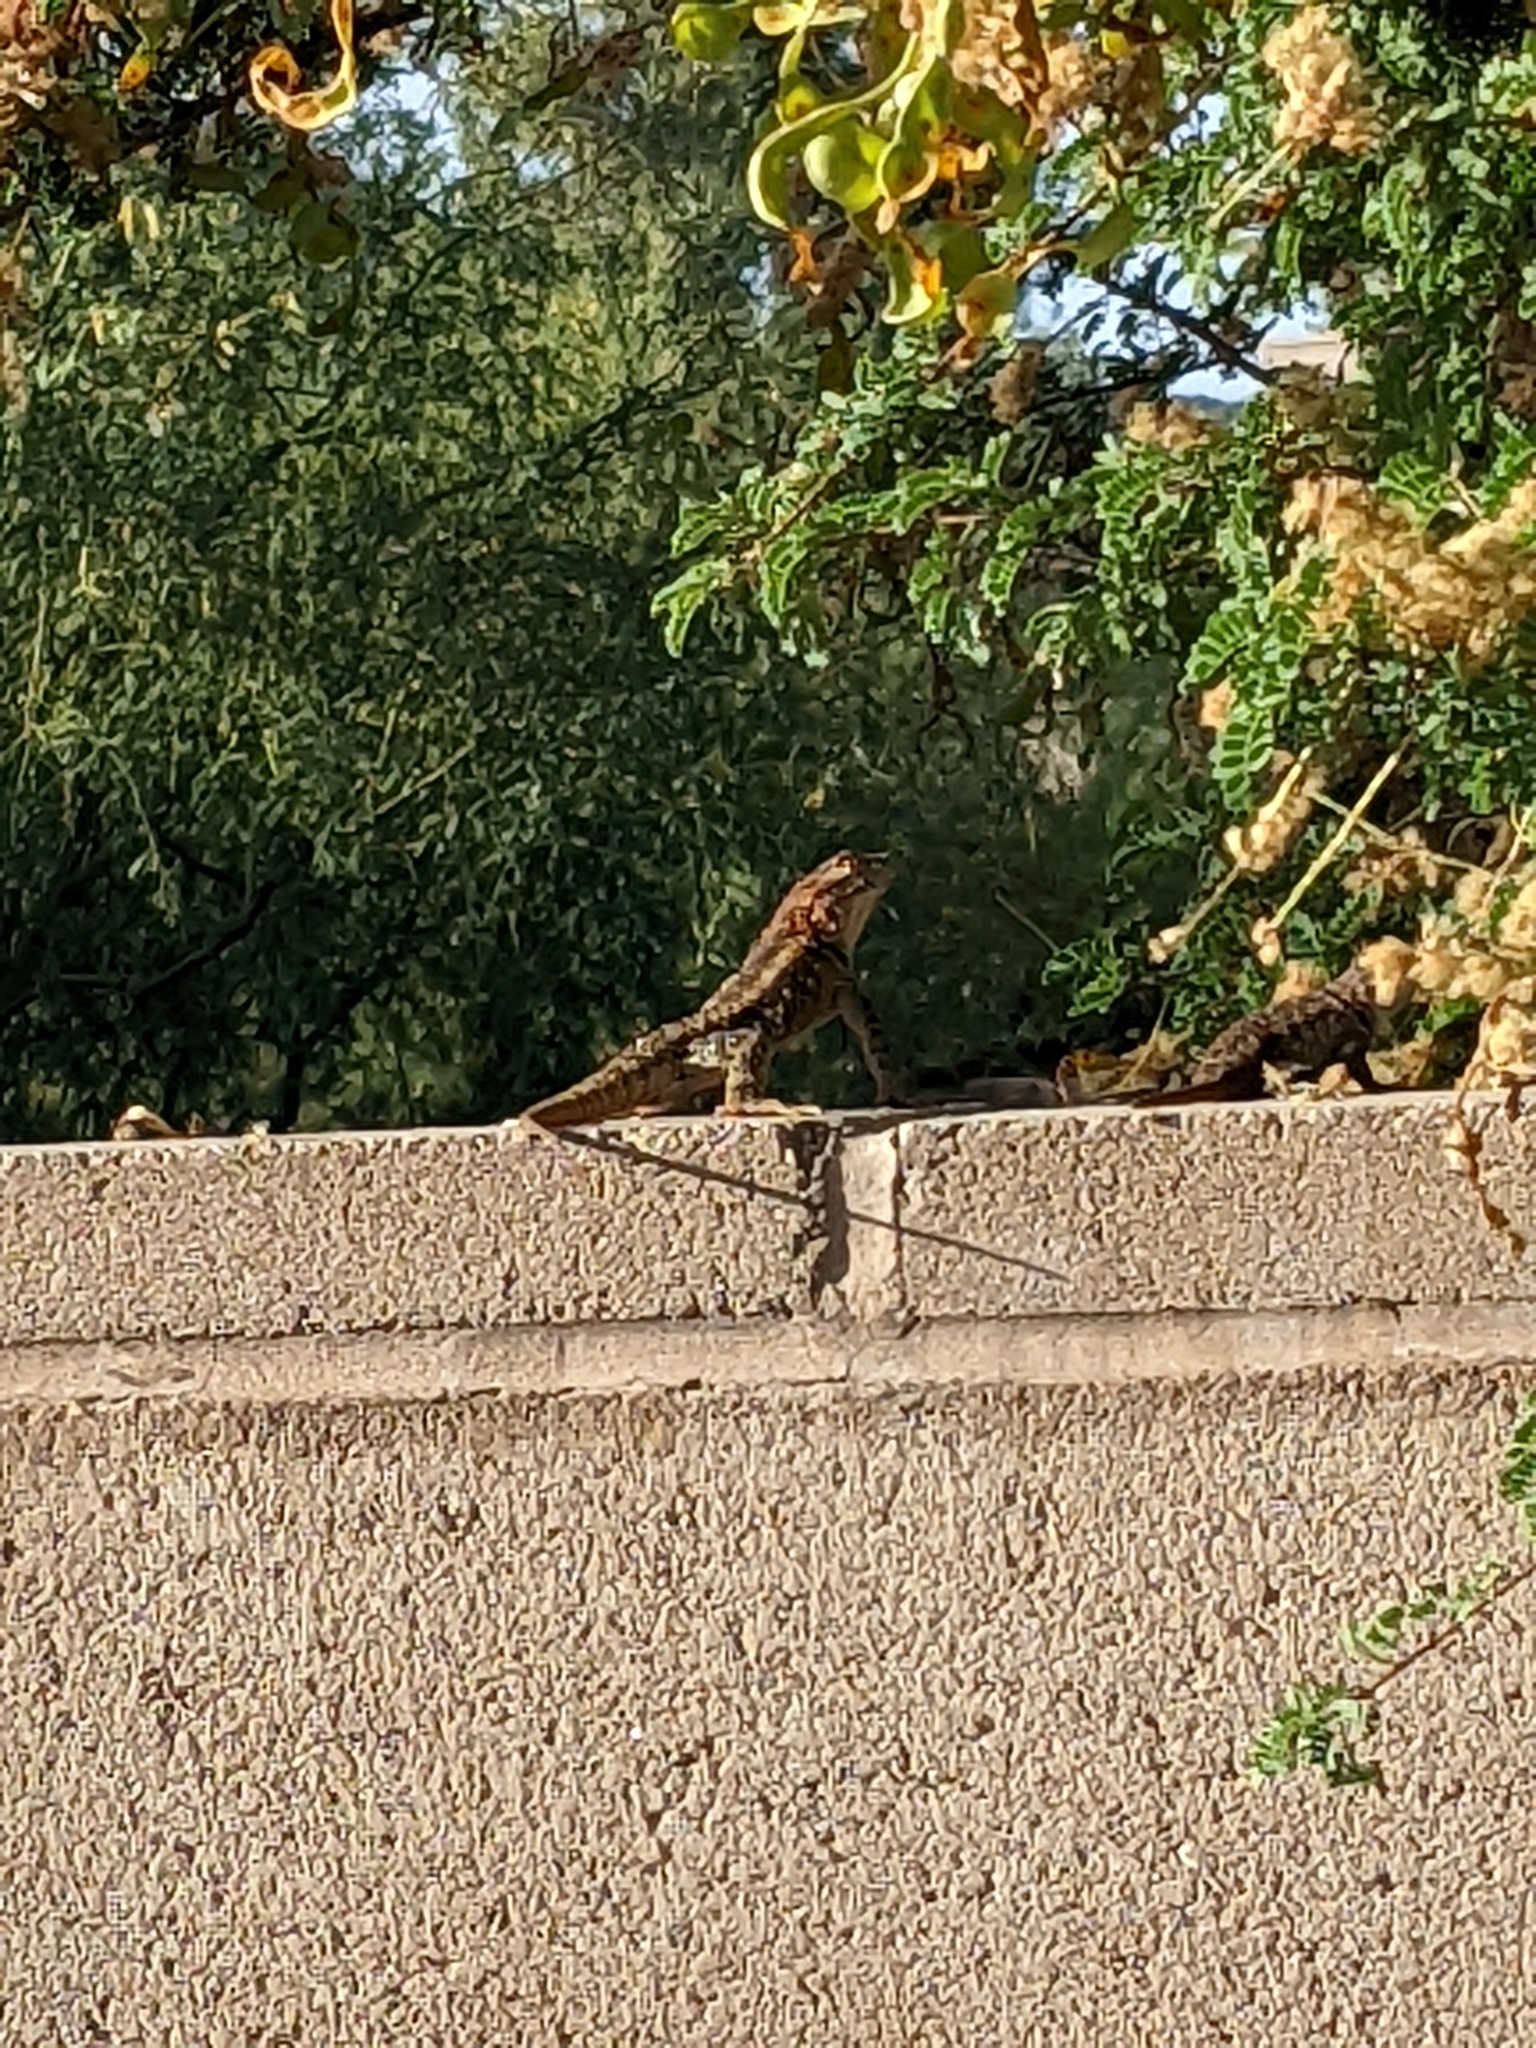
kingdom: Animalia
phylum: Chordata
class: Squamata
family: Phrynosomatidae
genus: Sceloporus
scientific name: Sceloporus magister
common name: Desert spiny lizard
